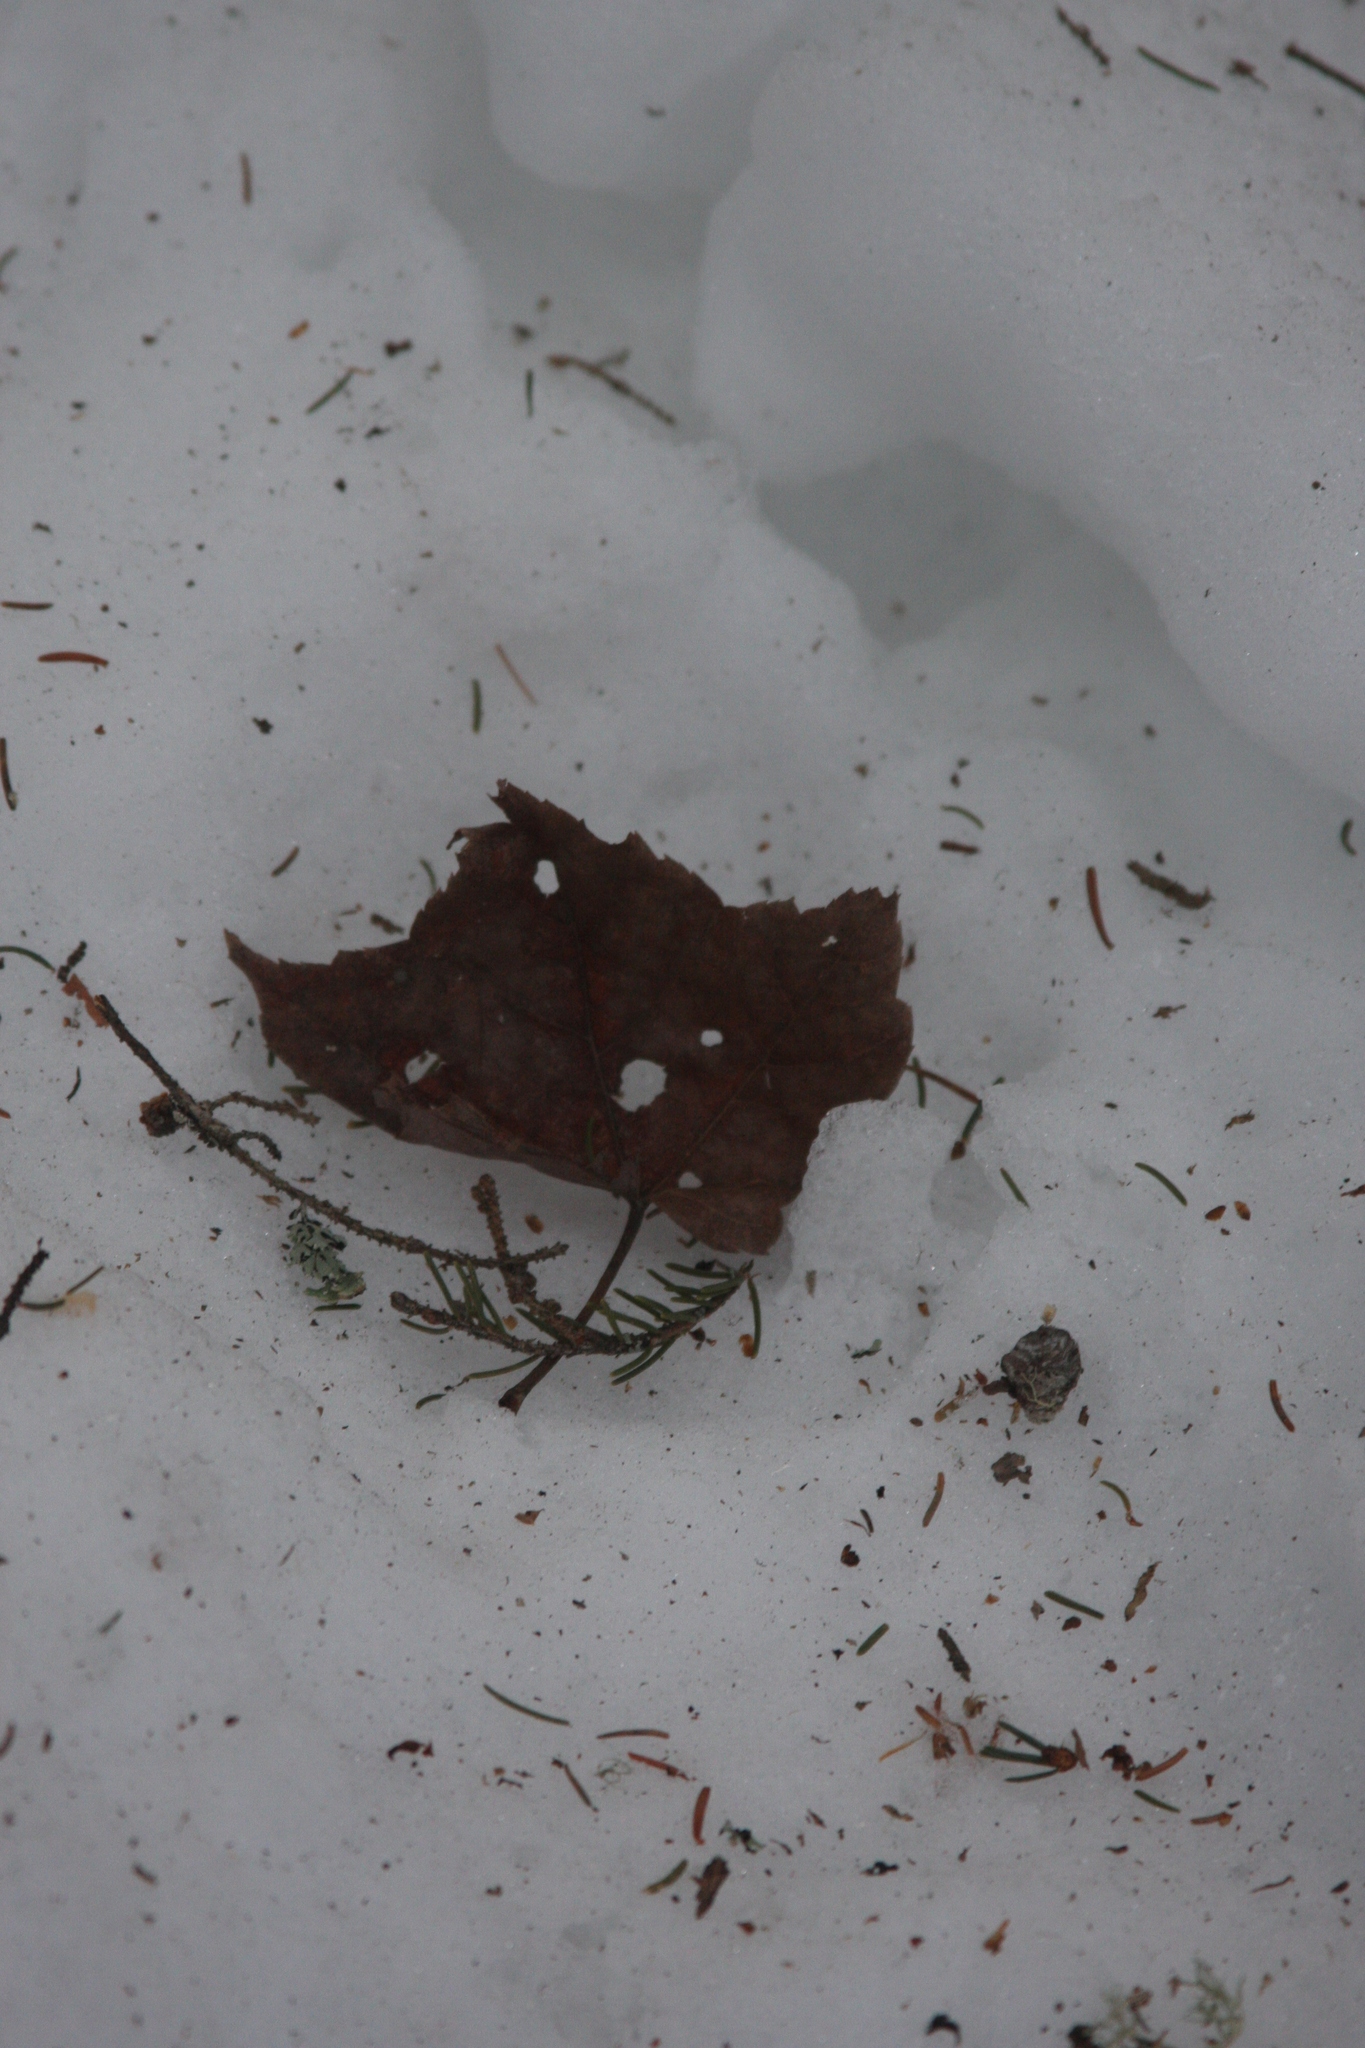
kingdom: Plantae
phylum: Tracheophyta
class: Magnoliopsida
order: Sapindales
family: Sapindaceae
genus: Acer
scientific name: Acer rubrum
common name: Red maple
